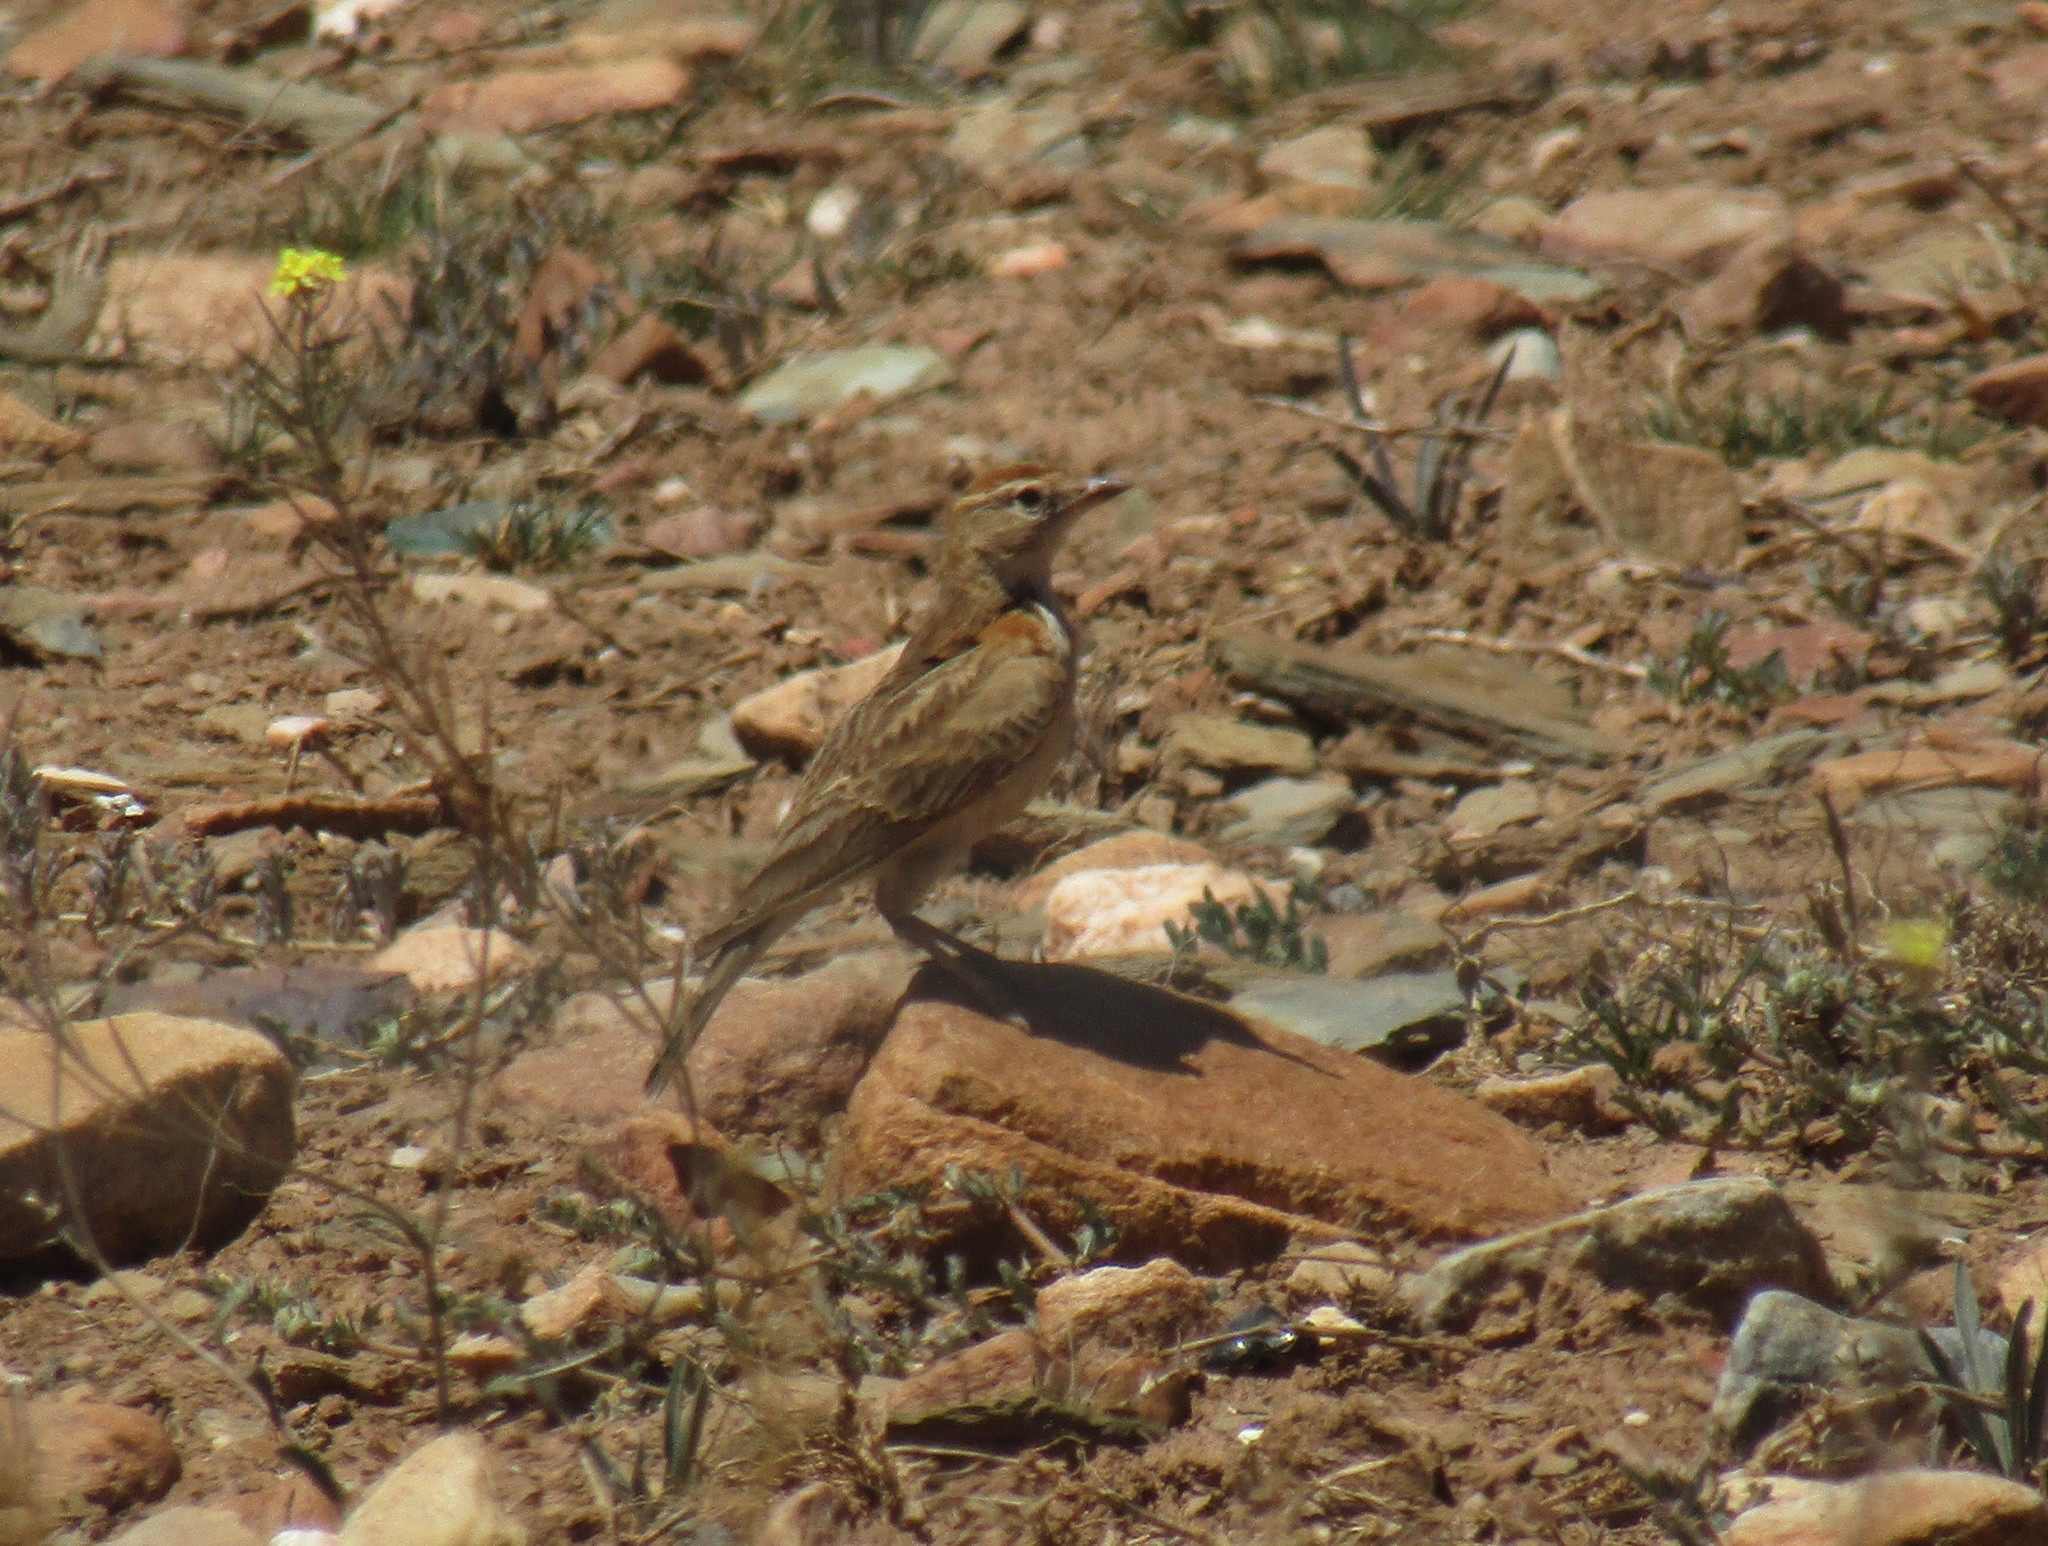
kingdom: Animalia
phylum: Chordata
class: Aves
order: Passeriformes
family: Alaudidae
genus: Calandrella
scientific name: Calandrella cinerea
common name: Red-capped lark
